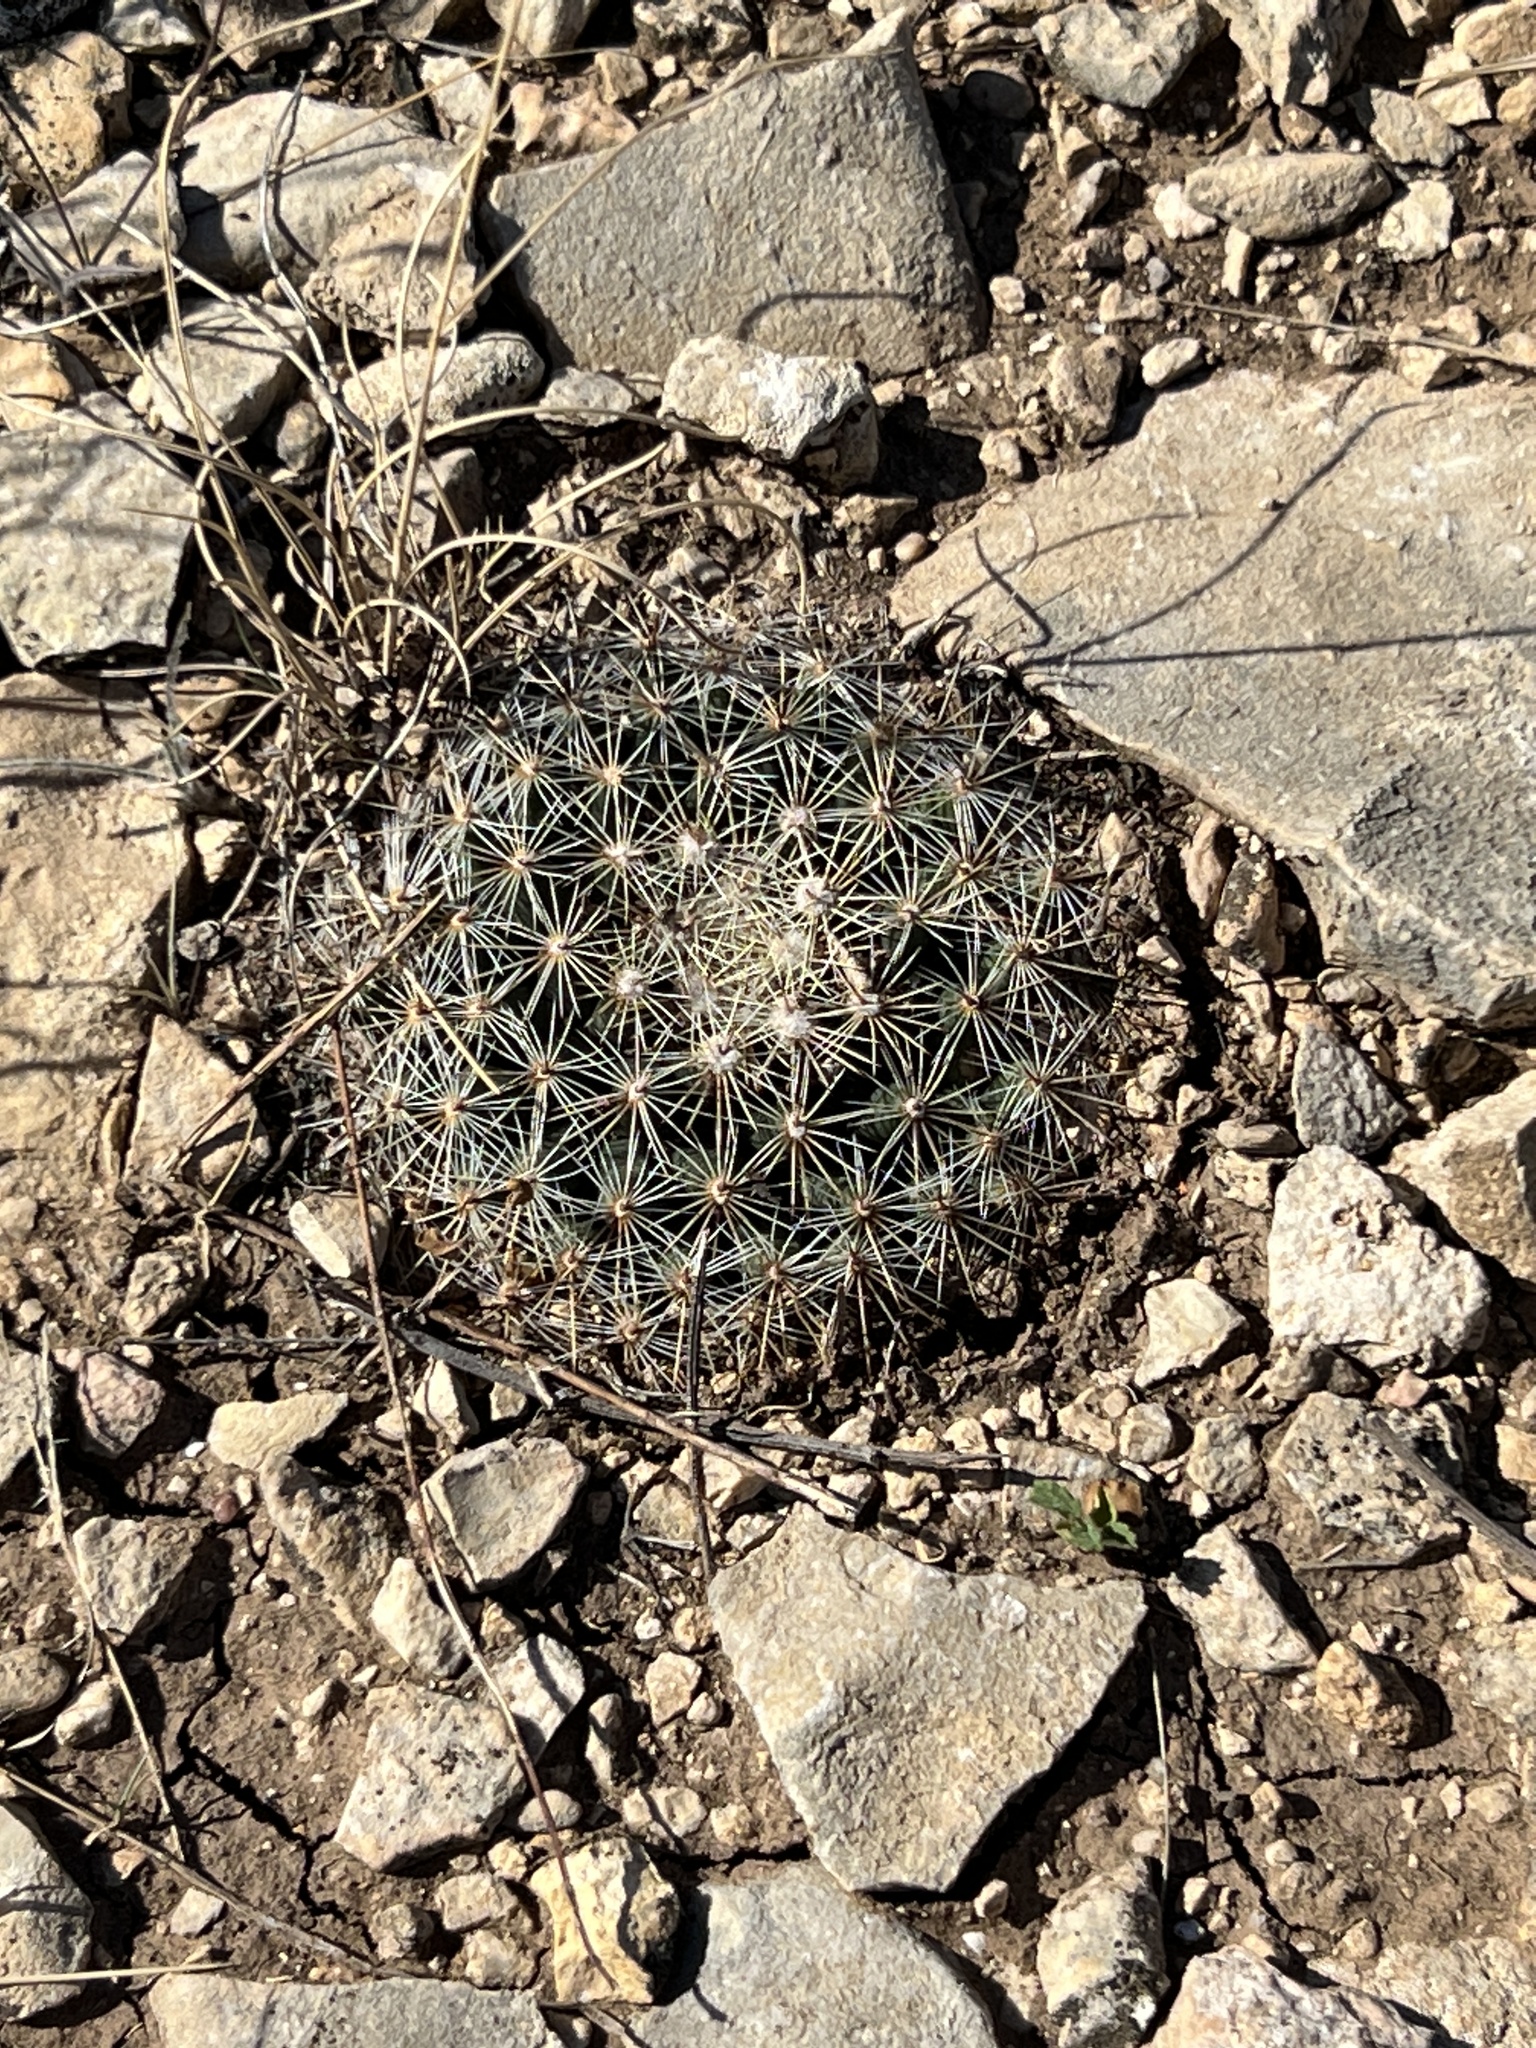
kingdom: Plantae
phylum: Tracheophyta
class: Magnoliopsida
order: Caryophyllales
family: Cactaceae
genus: Mammillaria
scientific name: Mammillaria heyderi
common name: Little nipple cactus
